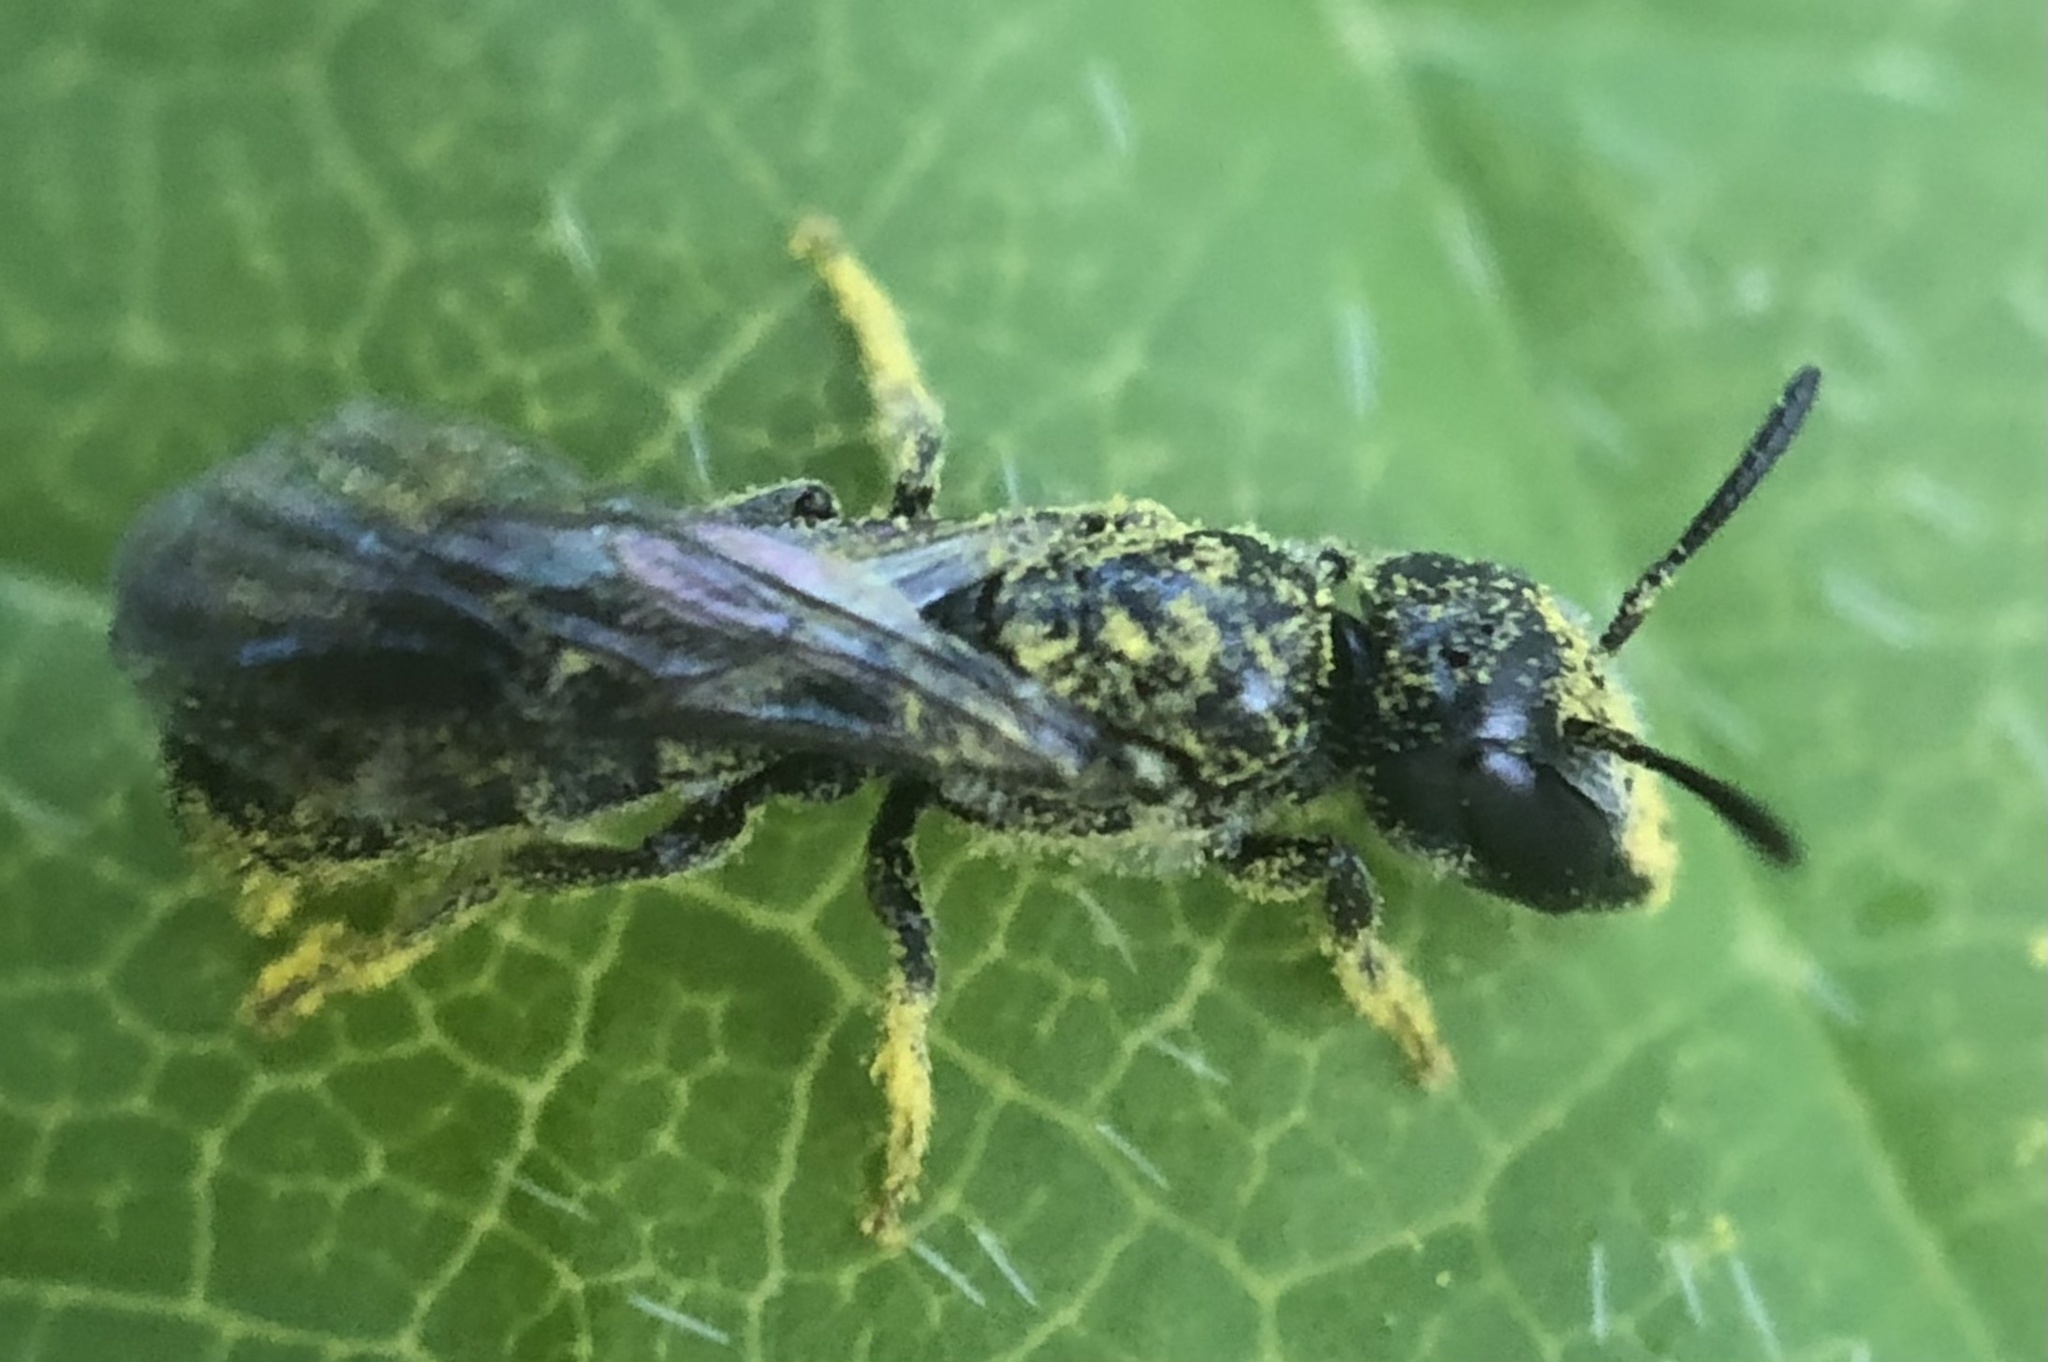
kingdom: Animalia
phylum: Arthropoda
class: Insecta
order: Hymenoptera
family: Megachilidae
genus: Chelostoma
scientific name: Chelostoma philadelphi
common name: Mock-orange scissor bee
